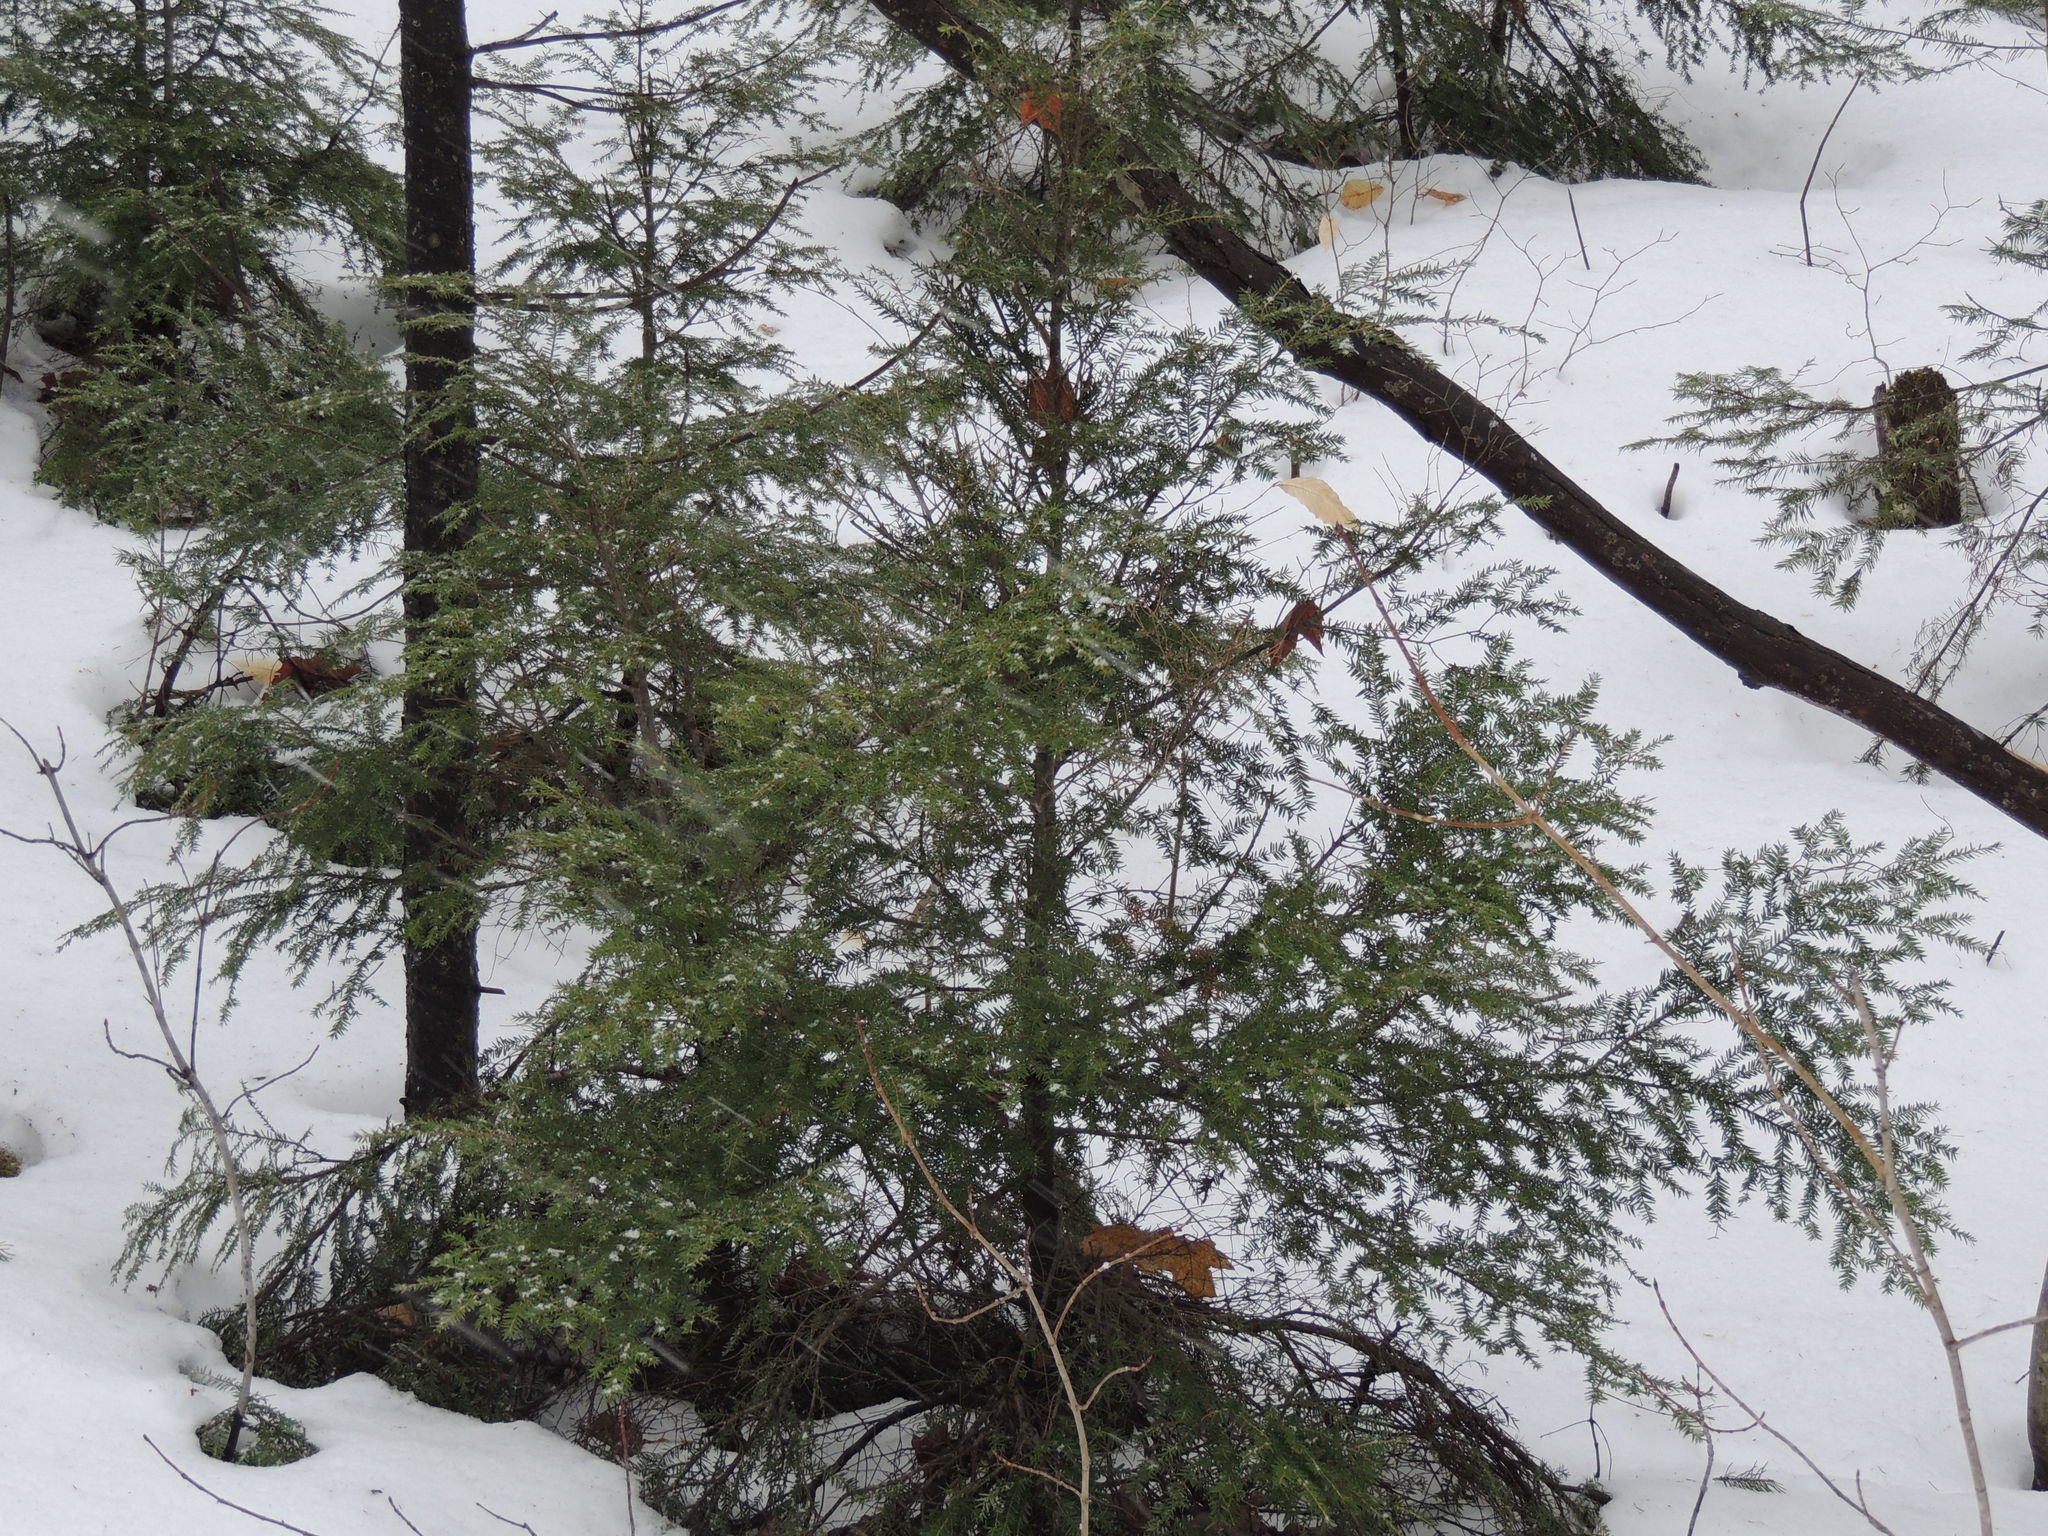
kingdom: Plantae
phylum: Tracheophyta
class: Pinopsida
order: Pinales
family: Pinaceae
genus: Tsuga
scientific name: Tsuga canadensis
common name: Eastern hemlock
